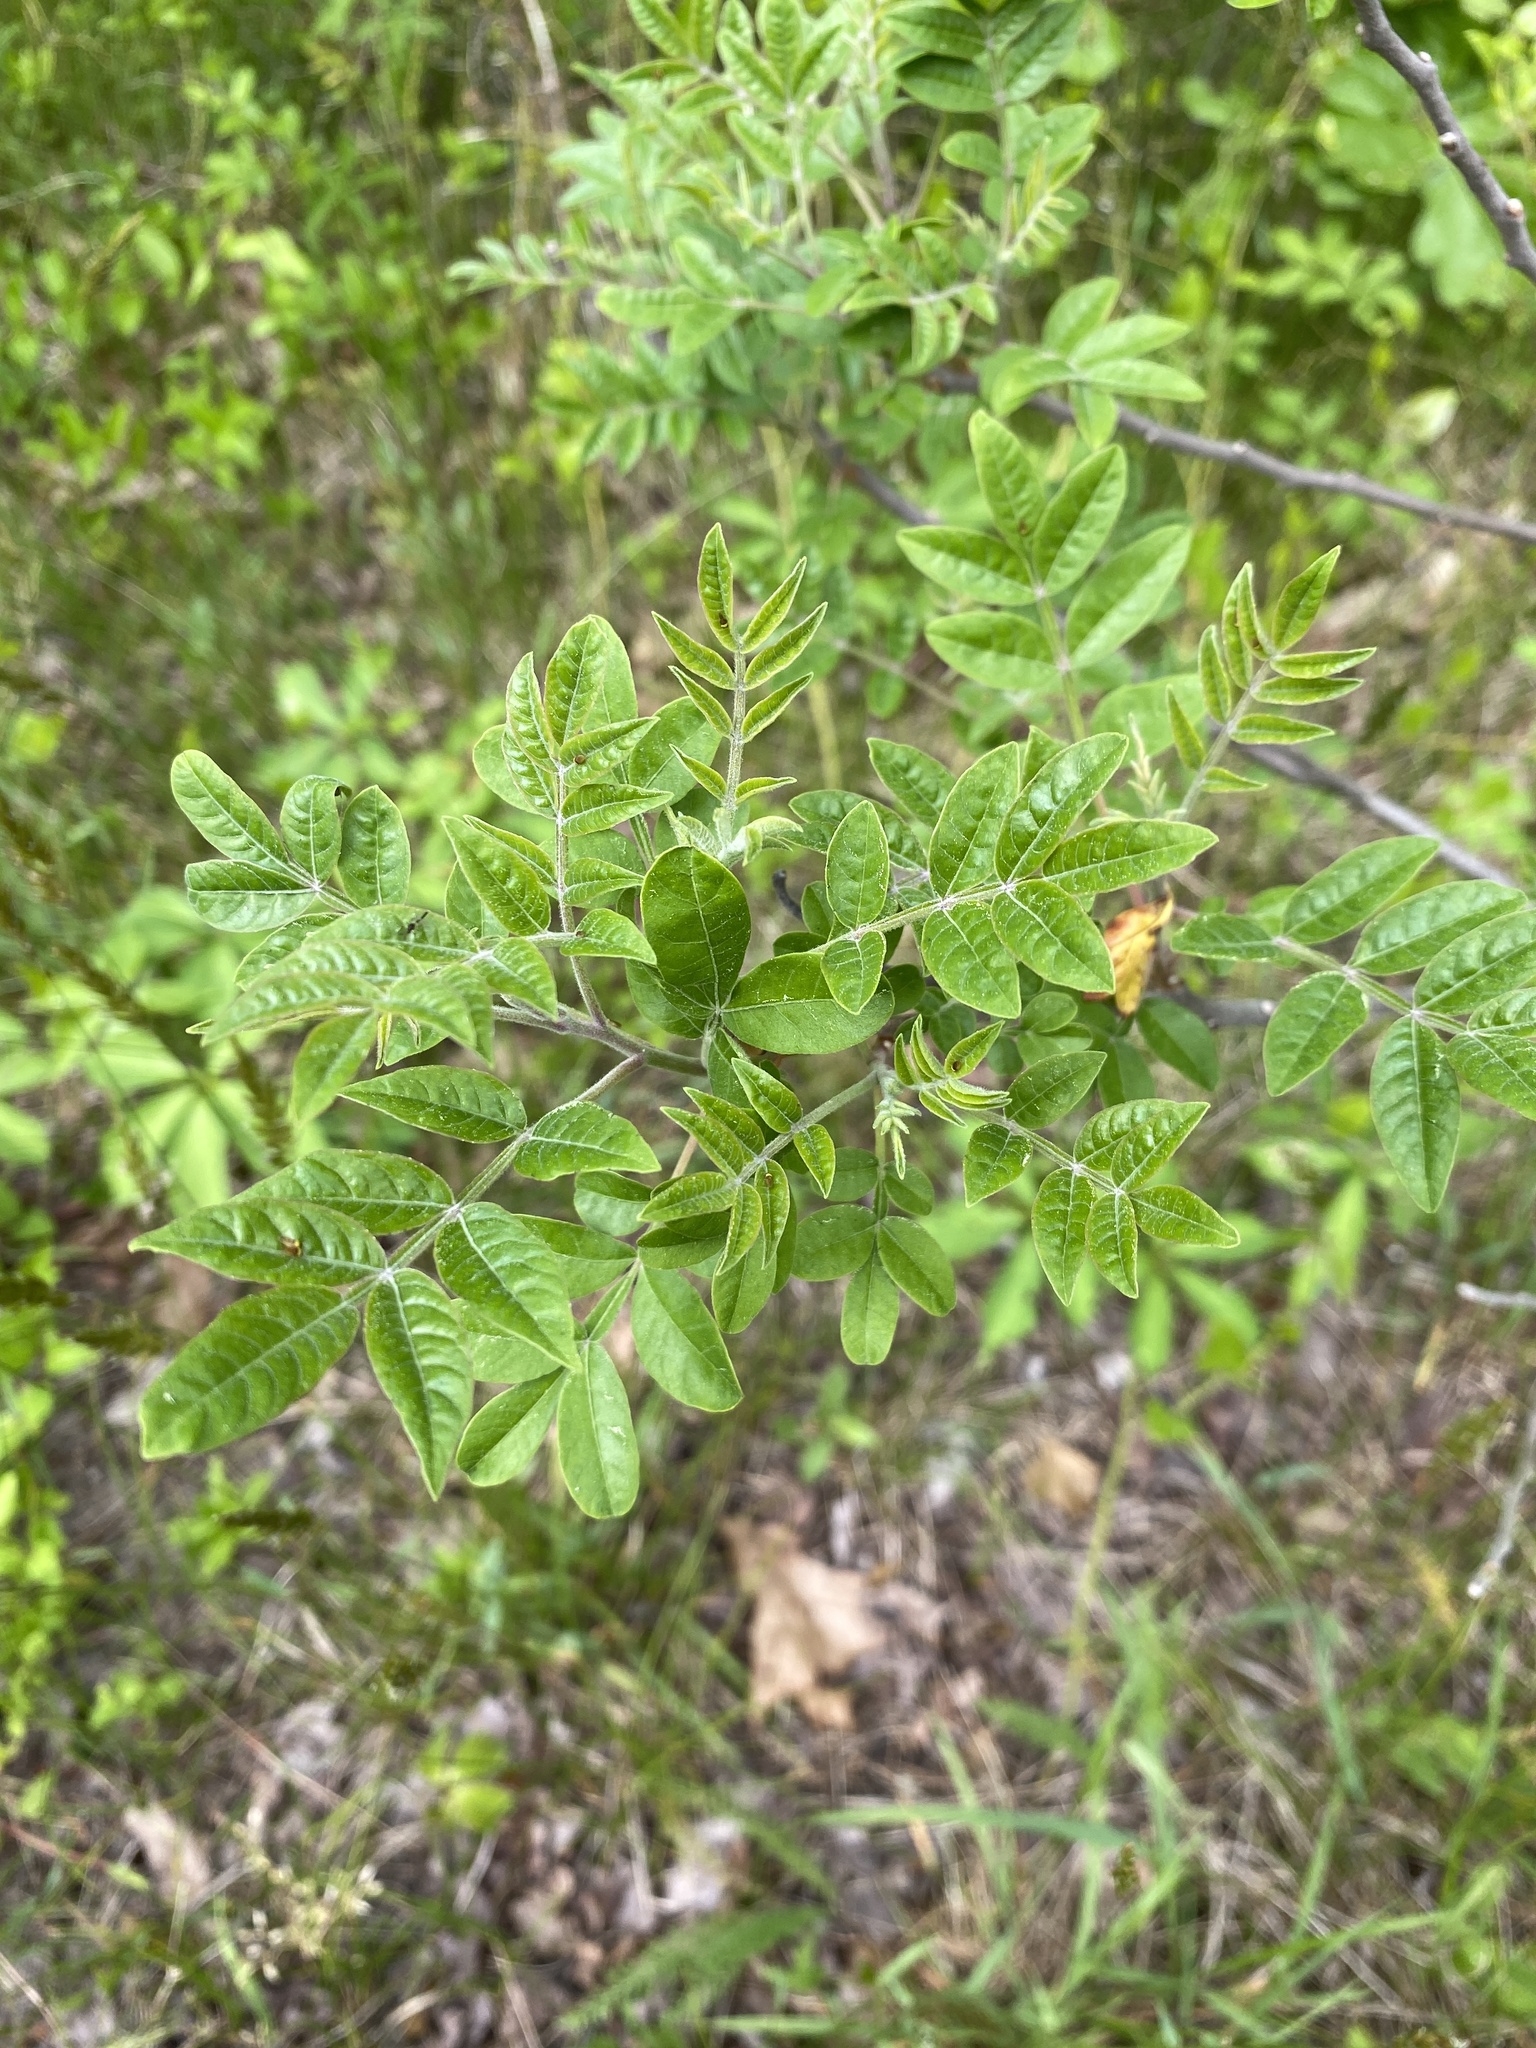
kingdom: Plantae
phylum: Tracheophyta
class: Magnoliopsida
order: Sapindales
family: Anacardiaceae
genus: Rhus
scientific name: Rhus copallina
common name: Shining sumac
